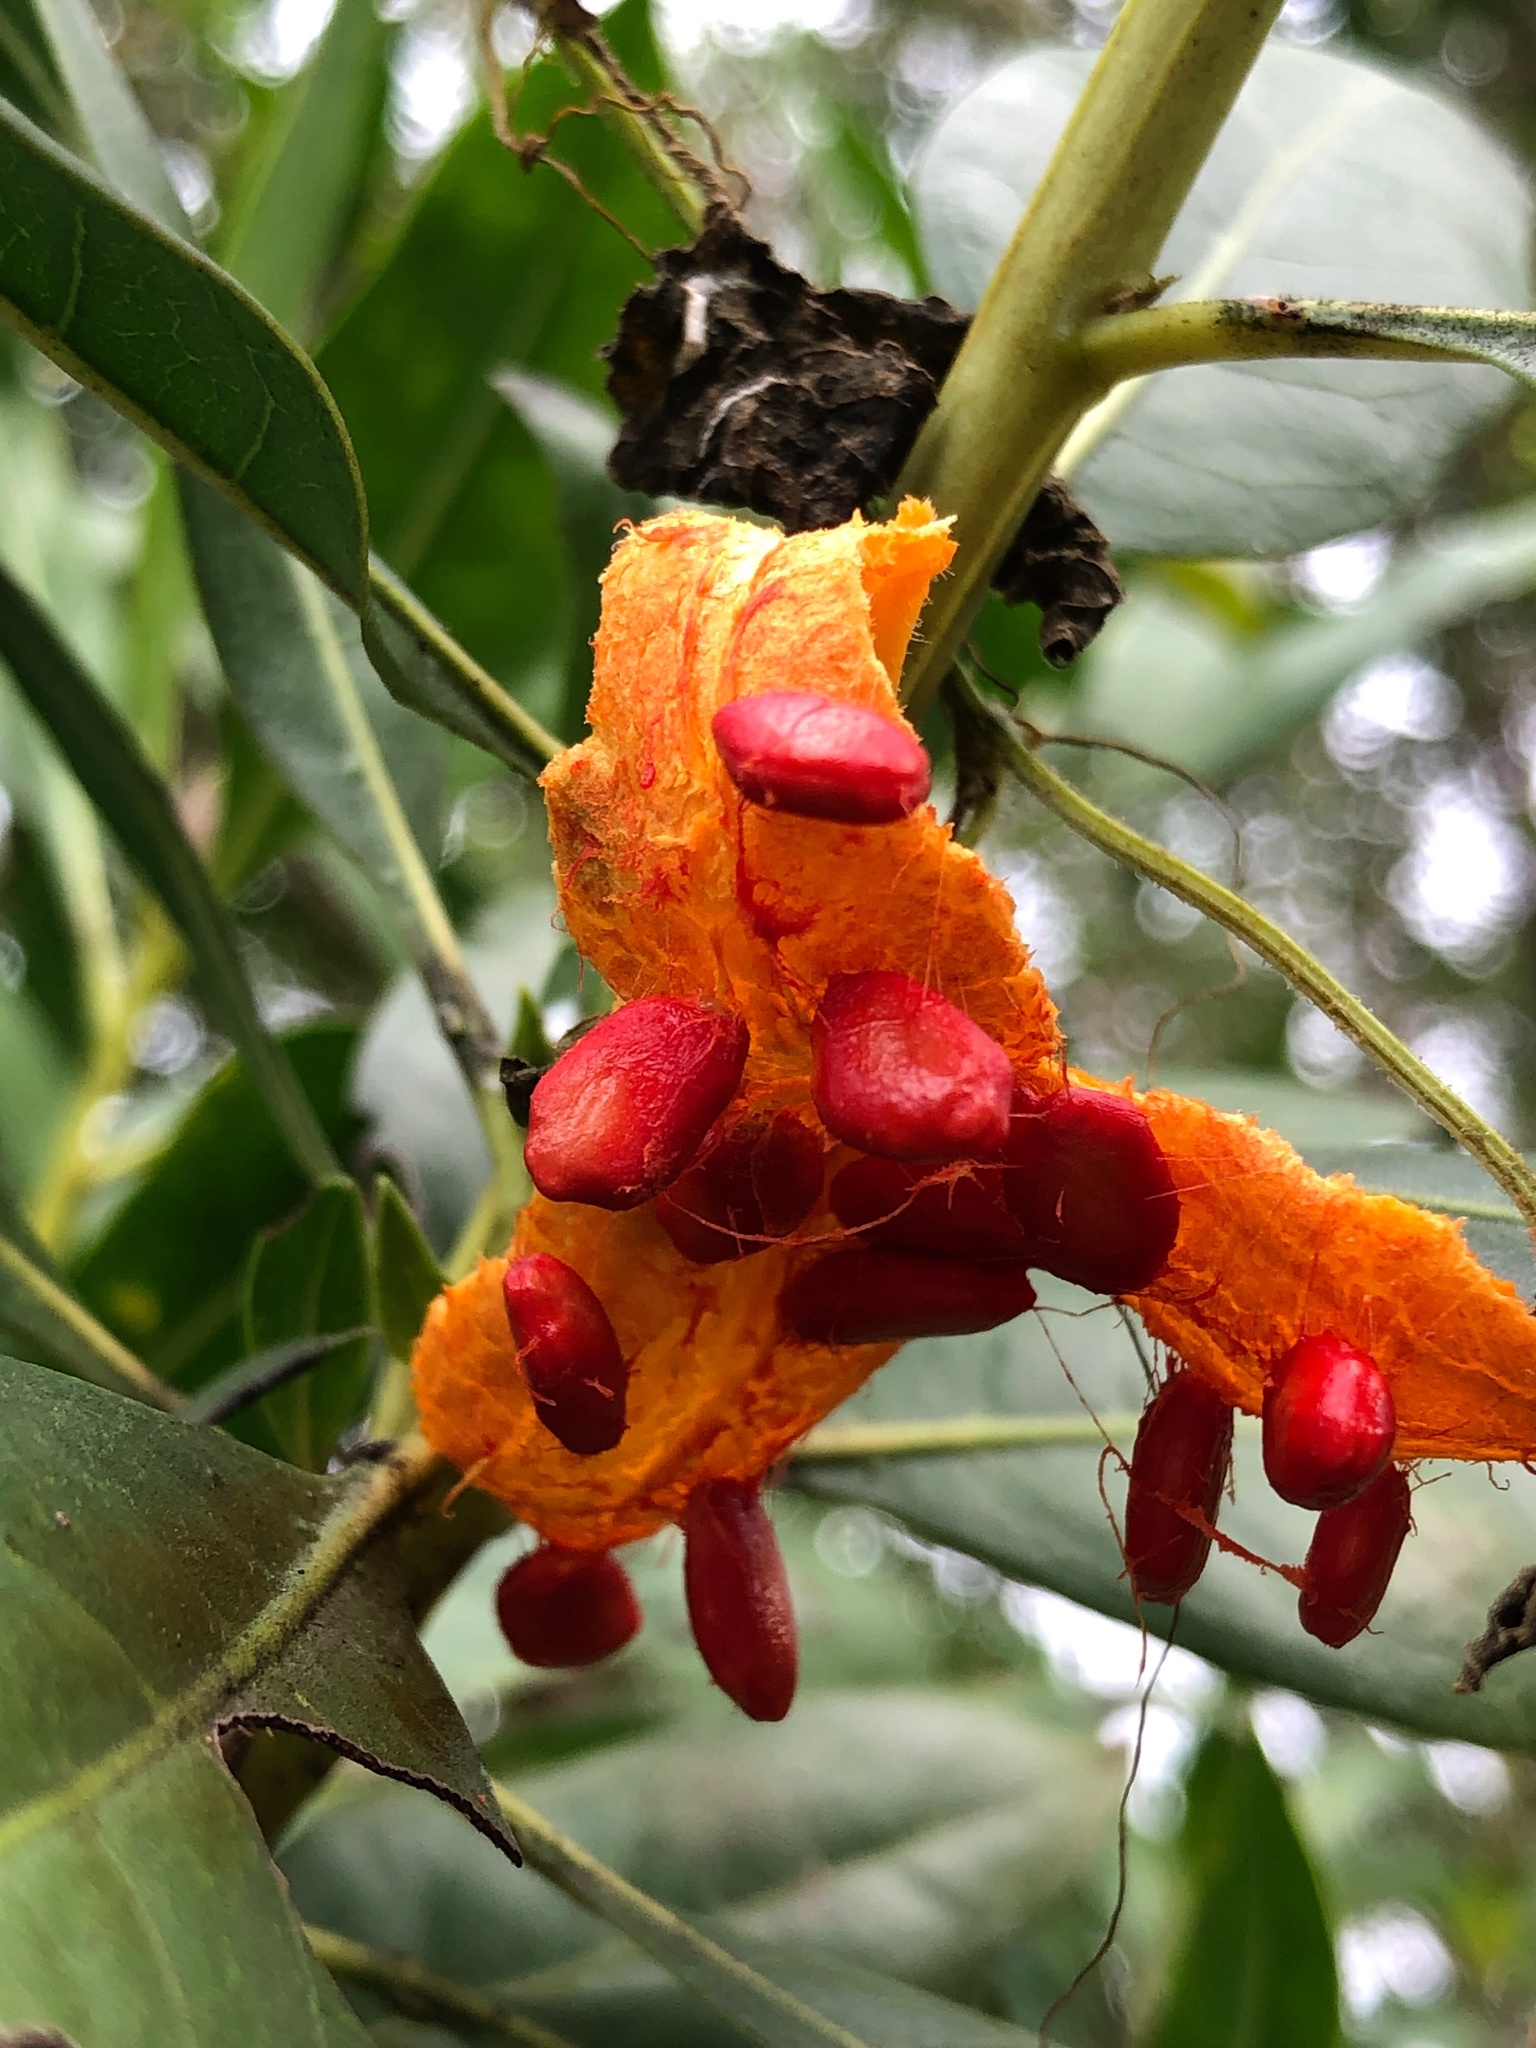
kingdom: Plantae
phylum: Tracheophyta
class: Magnoliopsida
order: Cucurbitales
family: Cucurbitaceae
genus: Momordica
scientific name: Momordica charantia
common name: Balsampear
